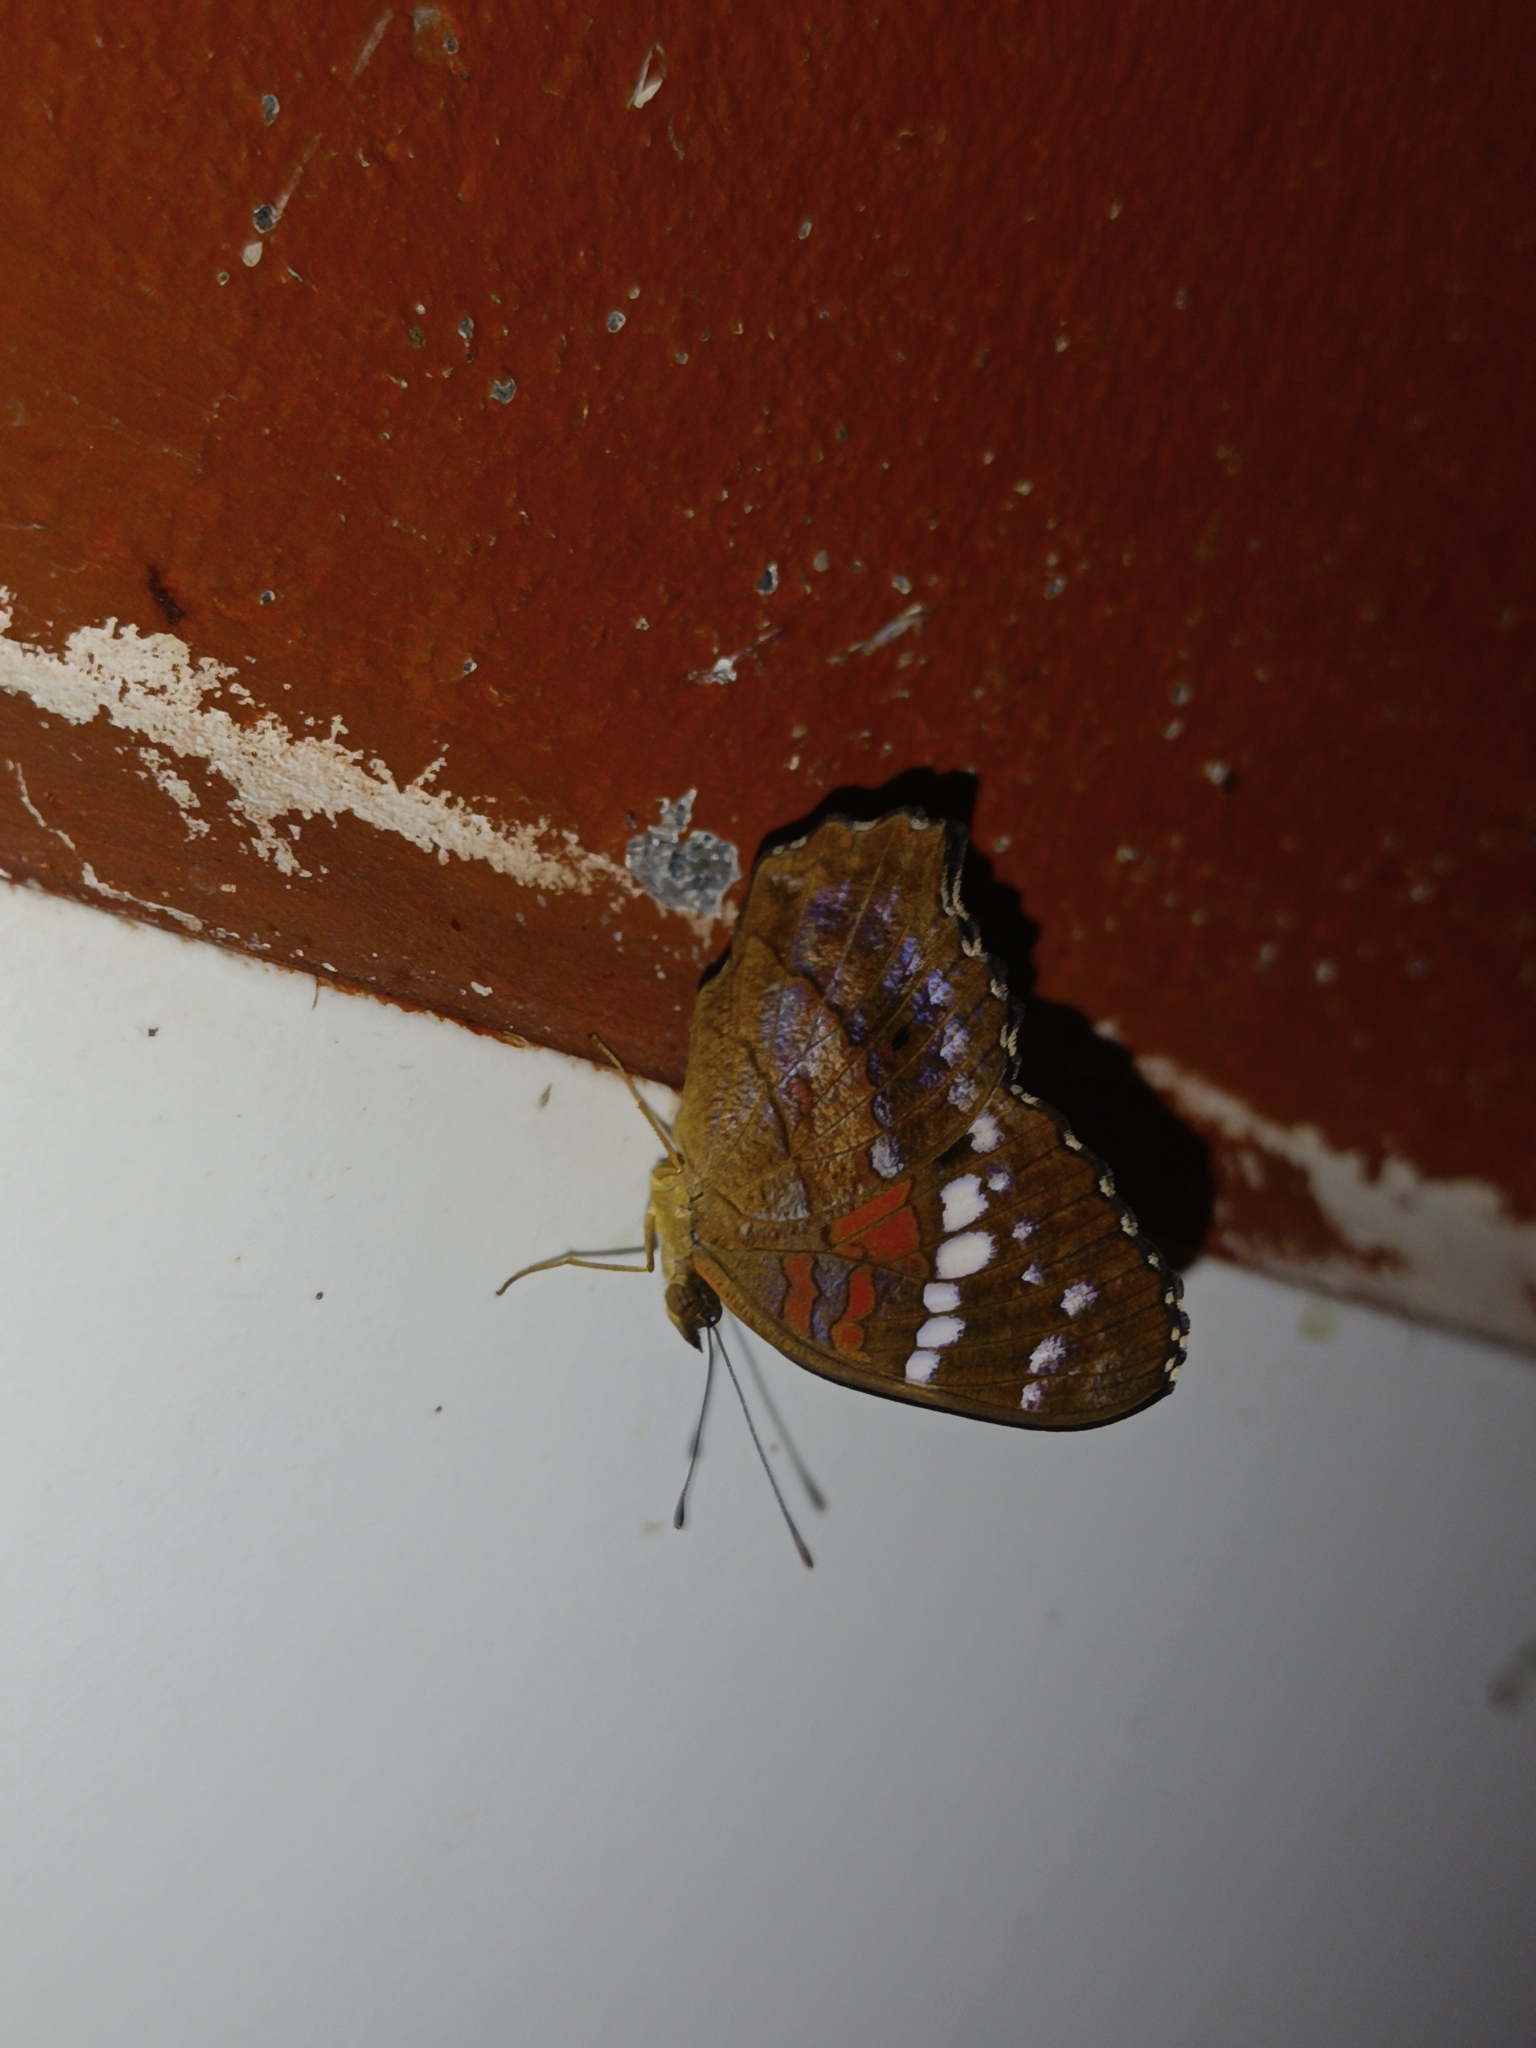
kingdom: Animalia
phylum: Arthropoda
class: Insecta
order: Lepidoptera
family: Nymphalidae
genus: Anartia
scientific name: Anartia amathea
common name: Red peacock
